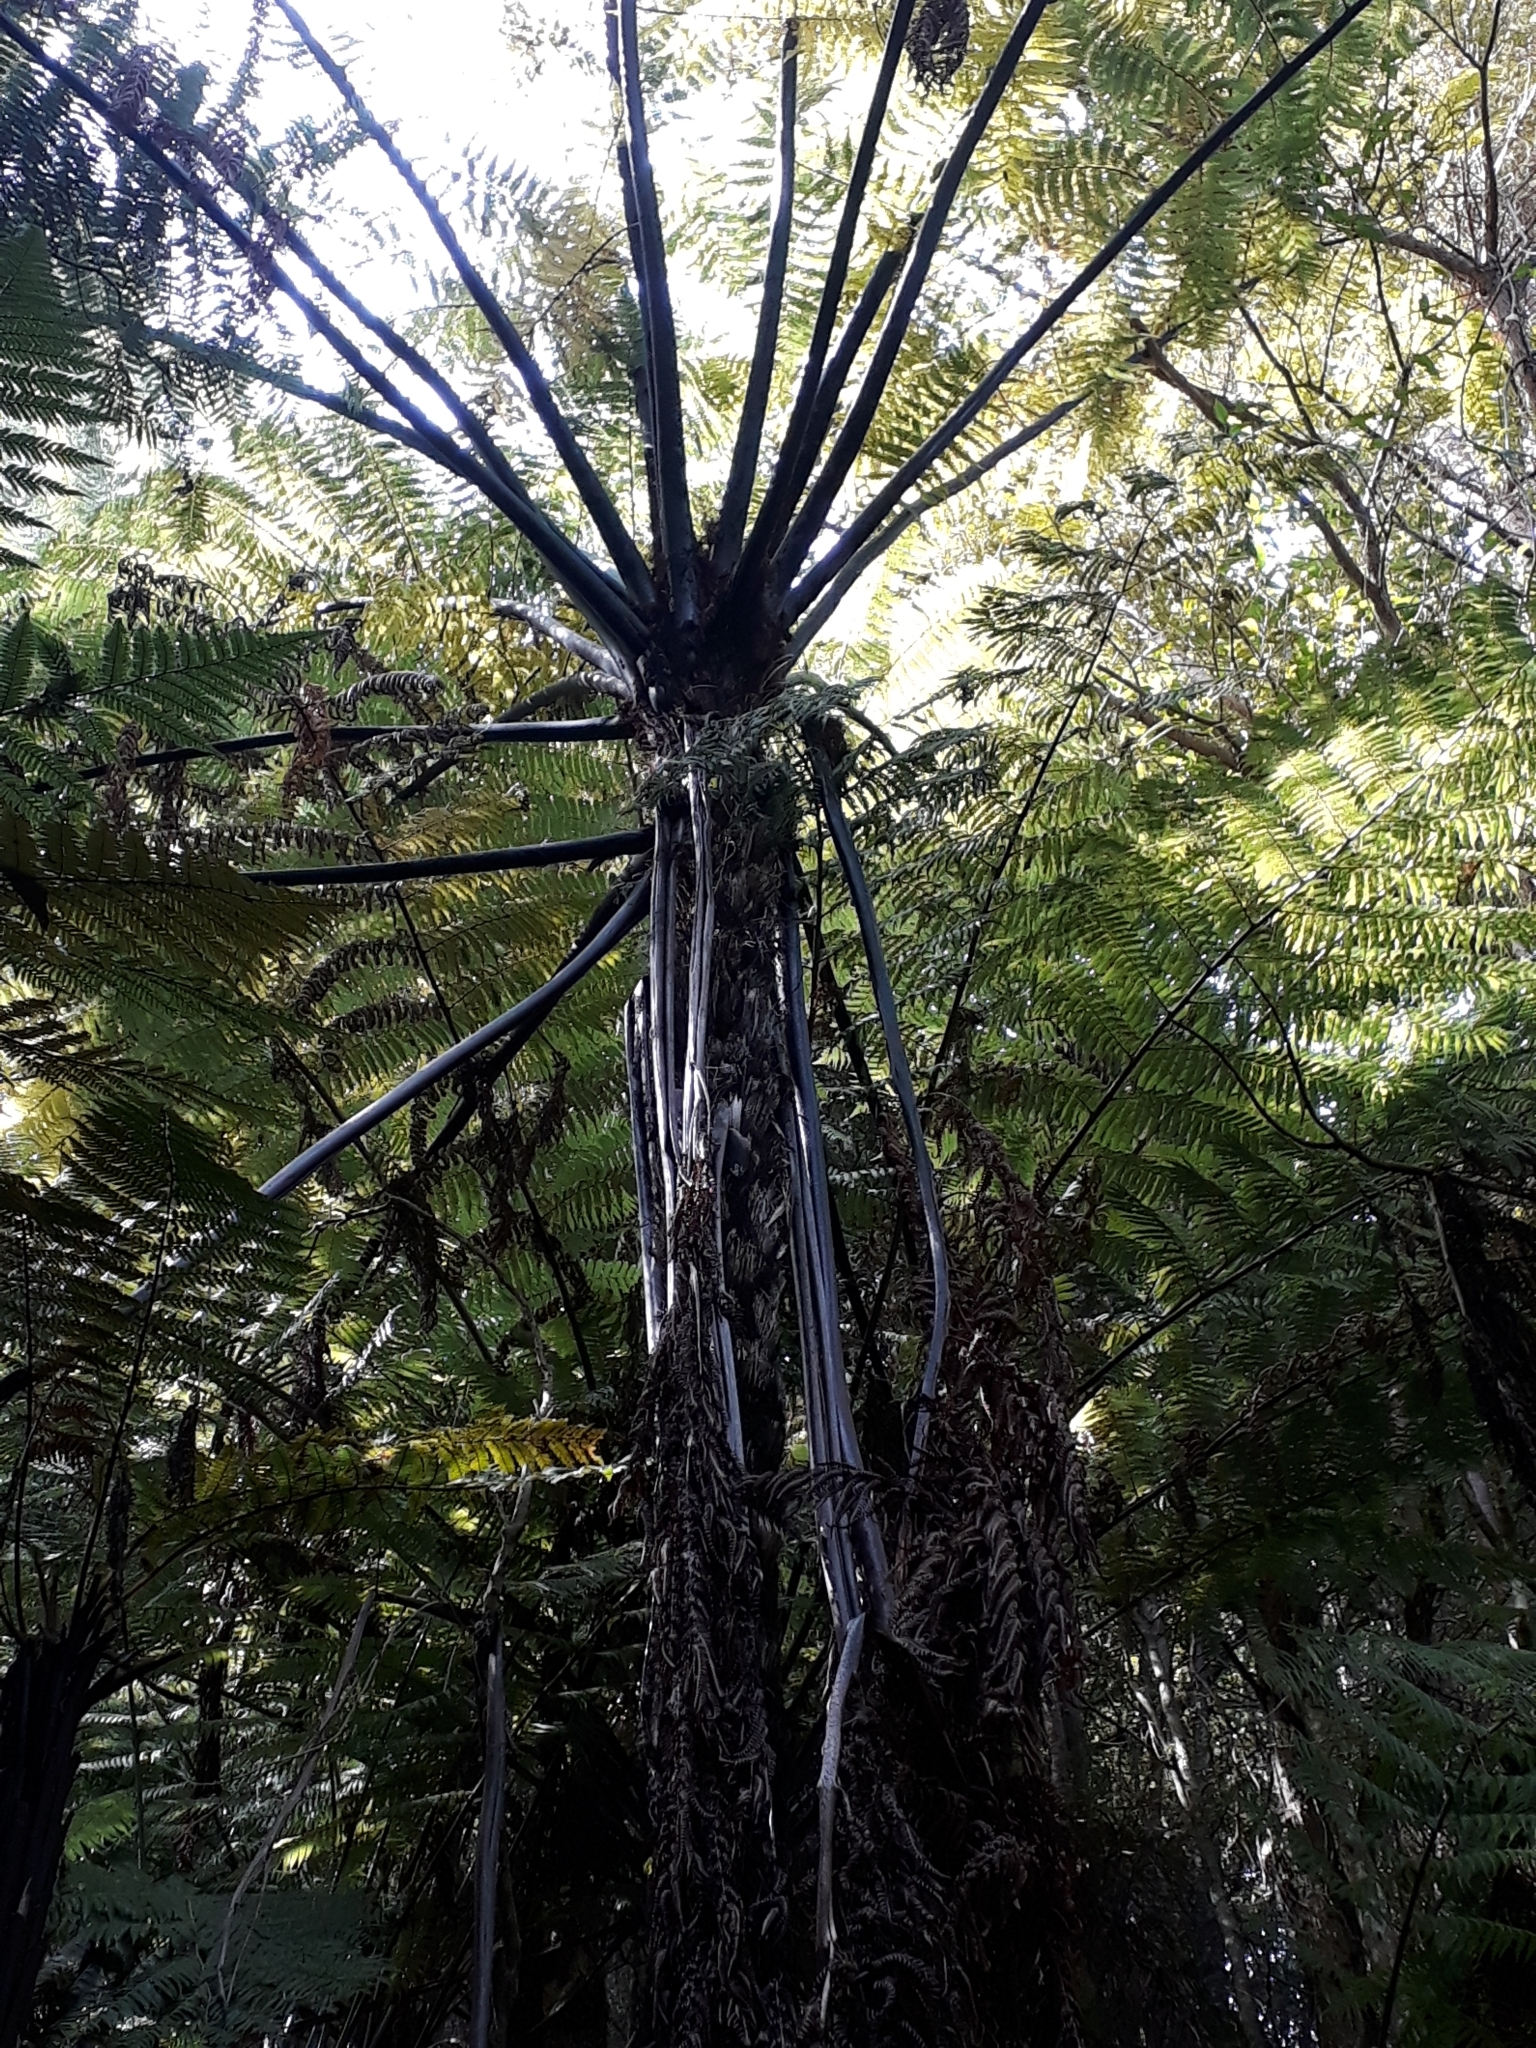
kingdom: Plantae
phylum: Tracheophyta
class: Polypodiopsida
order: Cyatheales
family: Cyatheaceae
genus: Sphaeropteris
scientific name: Sphaeropteris medullaris
